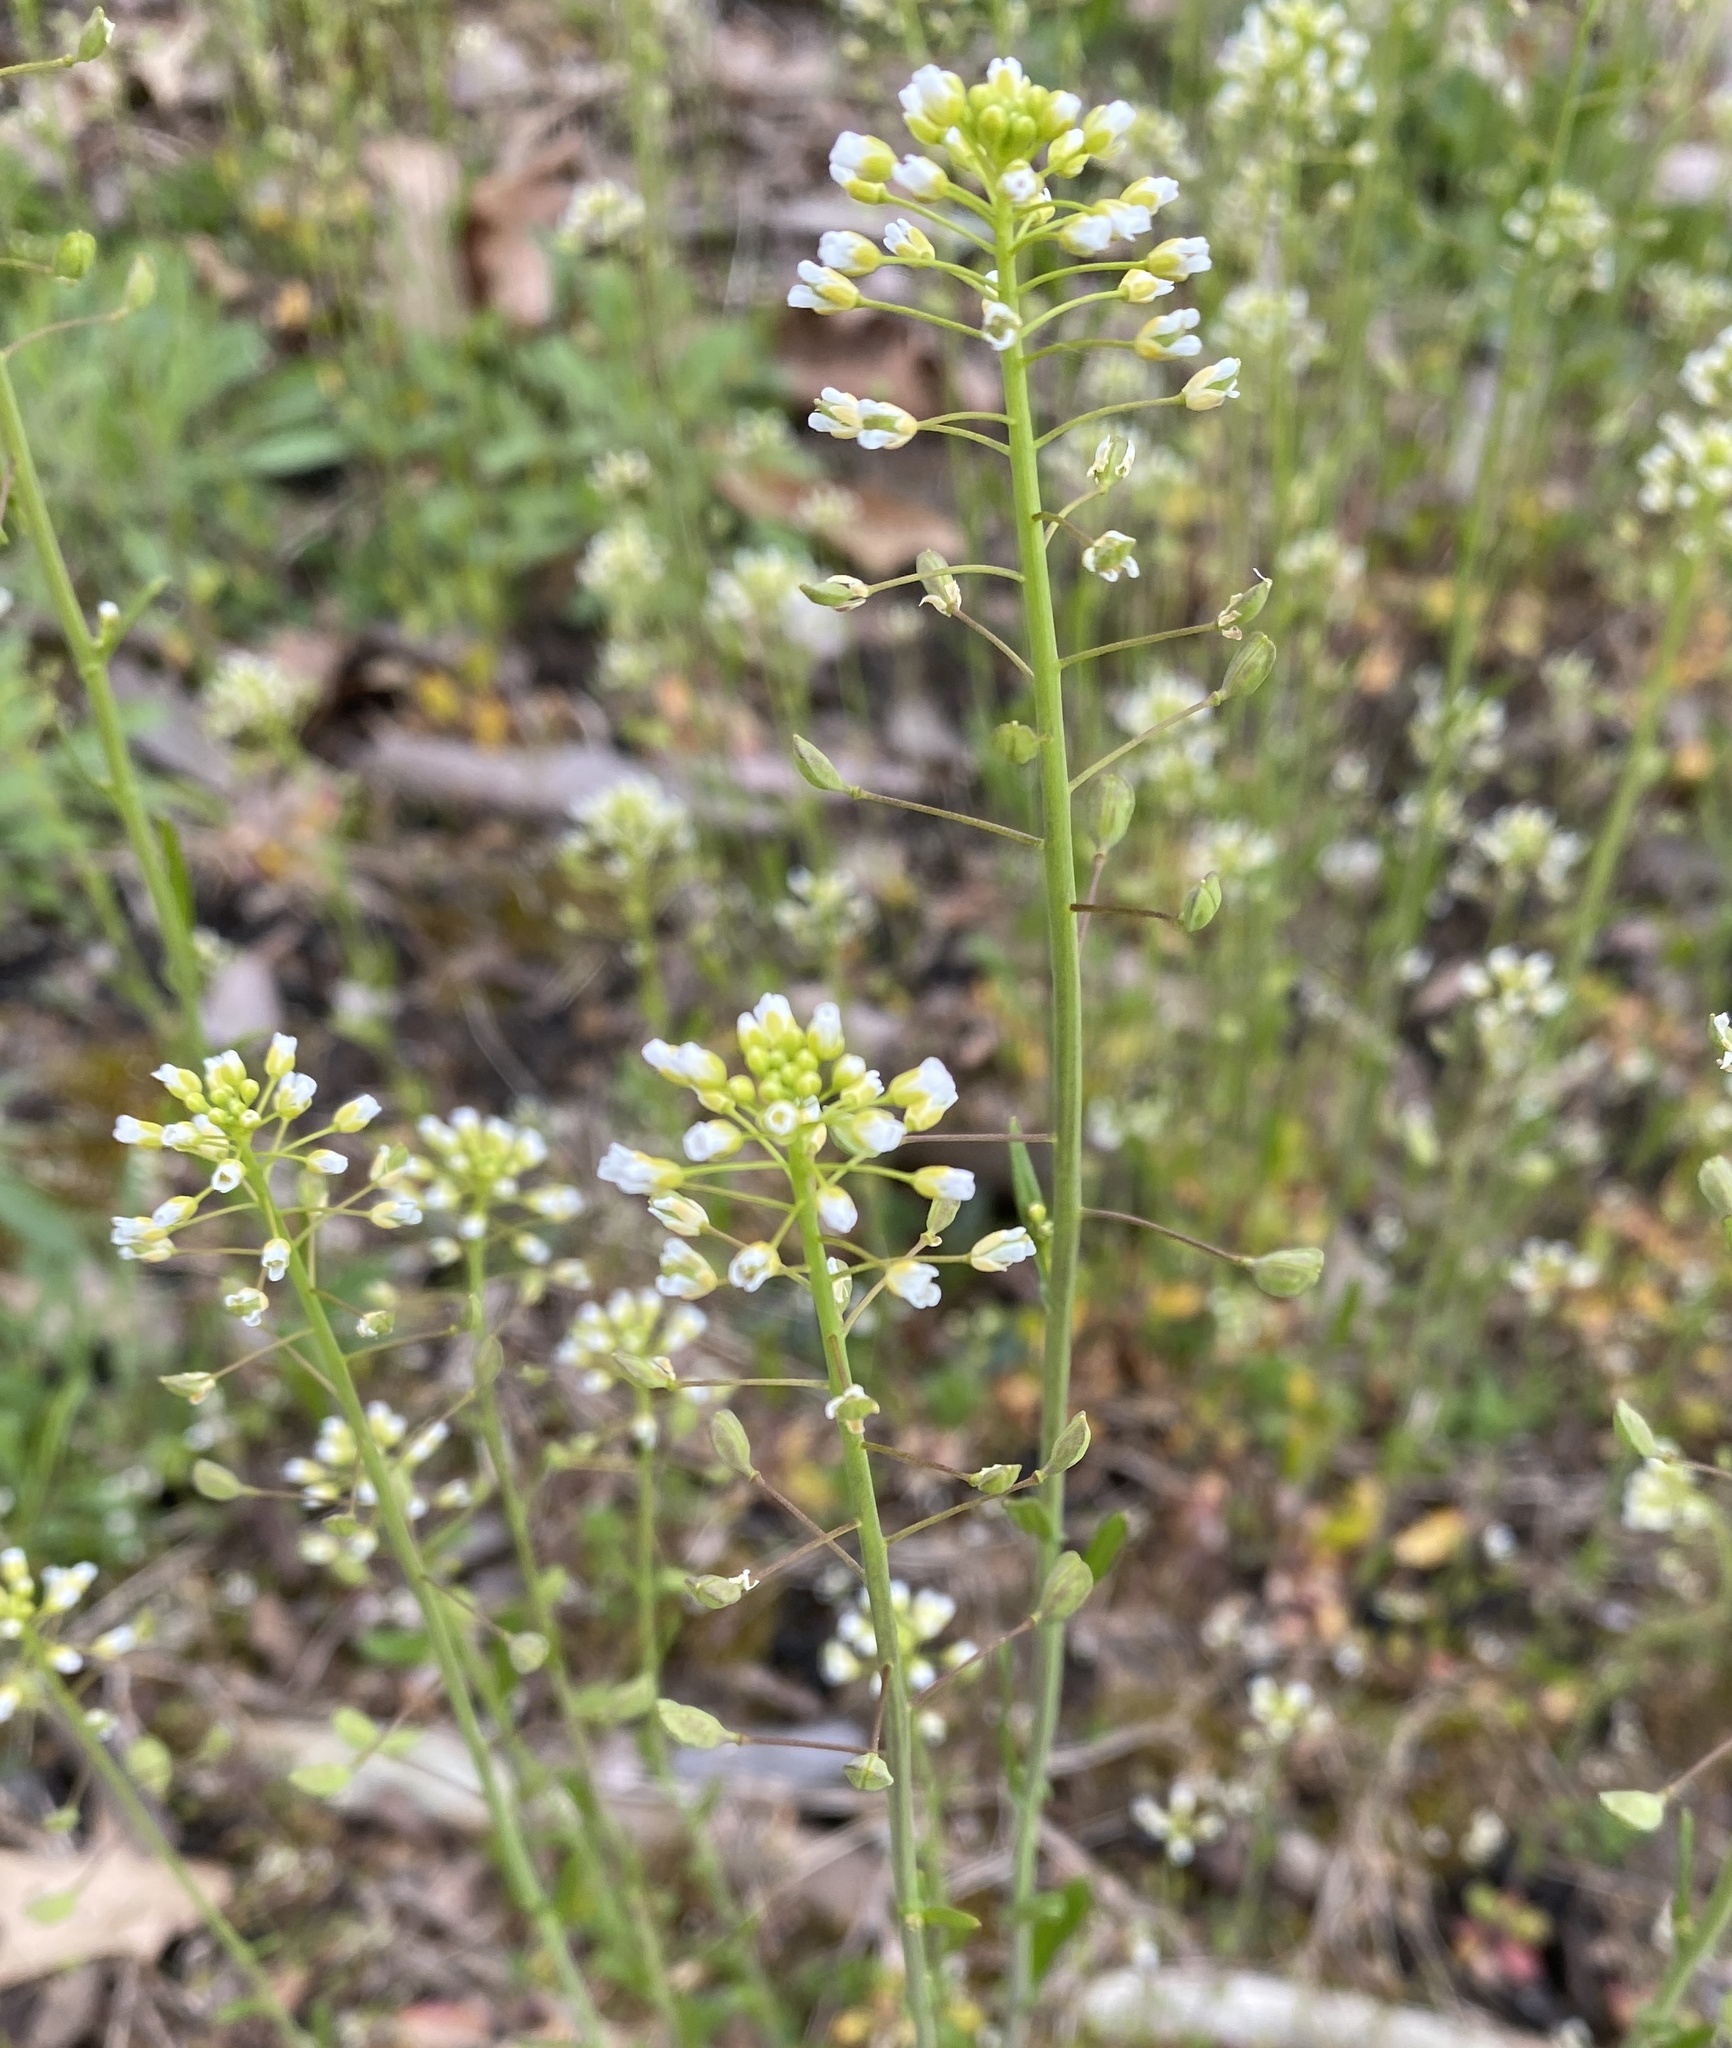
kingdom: Plantae
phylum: Tracheophyta
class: Magnoliopsida
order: Brassicales
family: Brassicaceae
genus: Mummenhoffia
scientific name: Mummenhoffia alliacea
